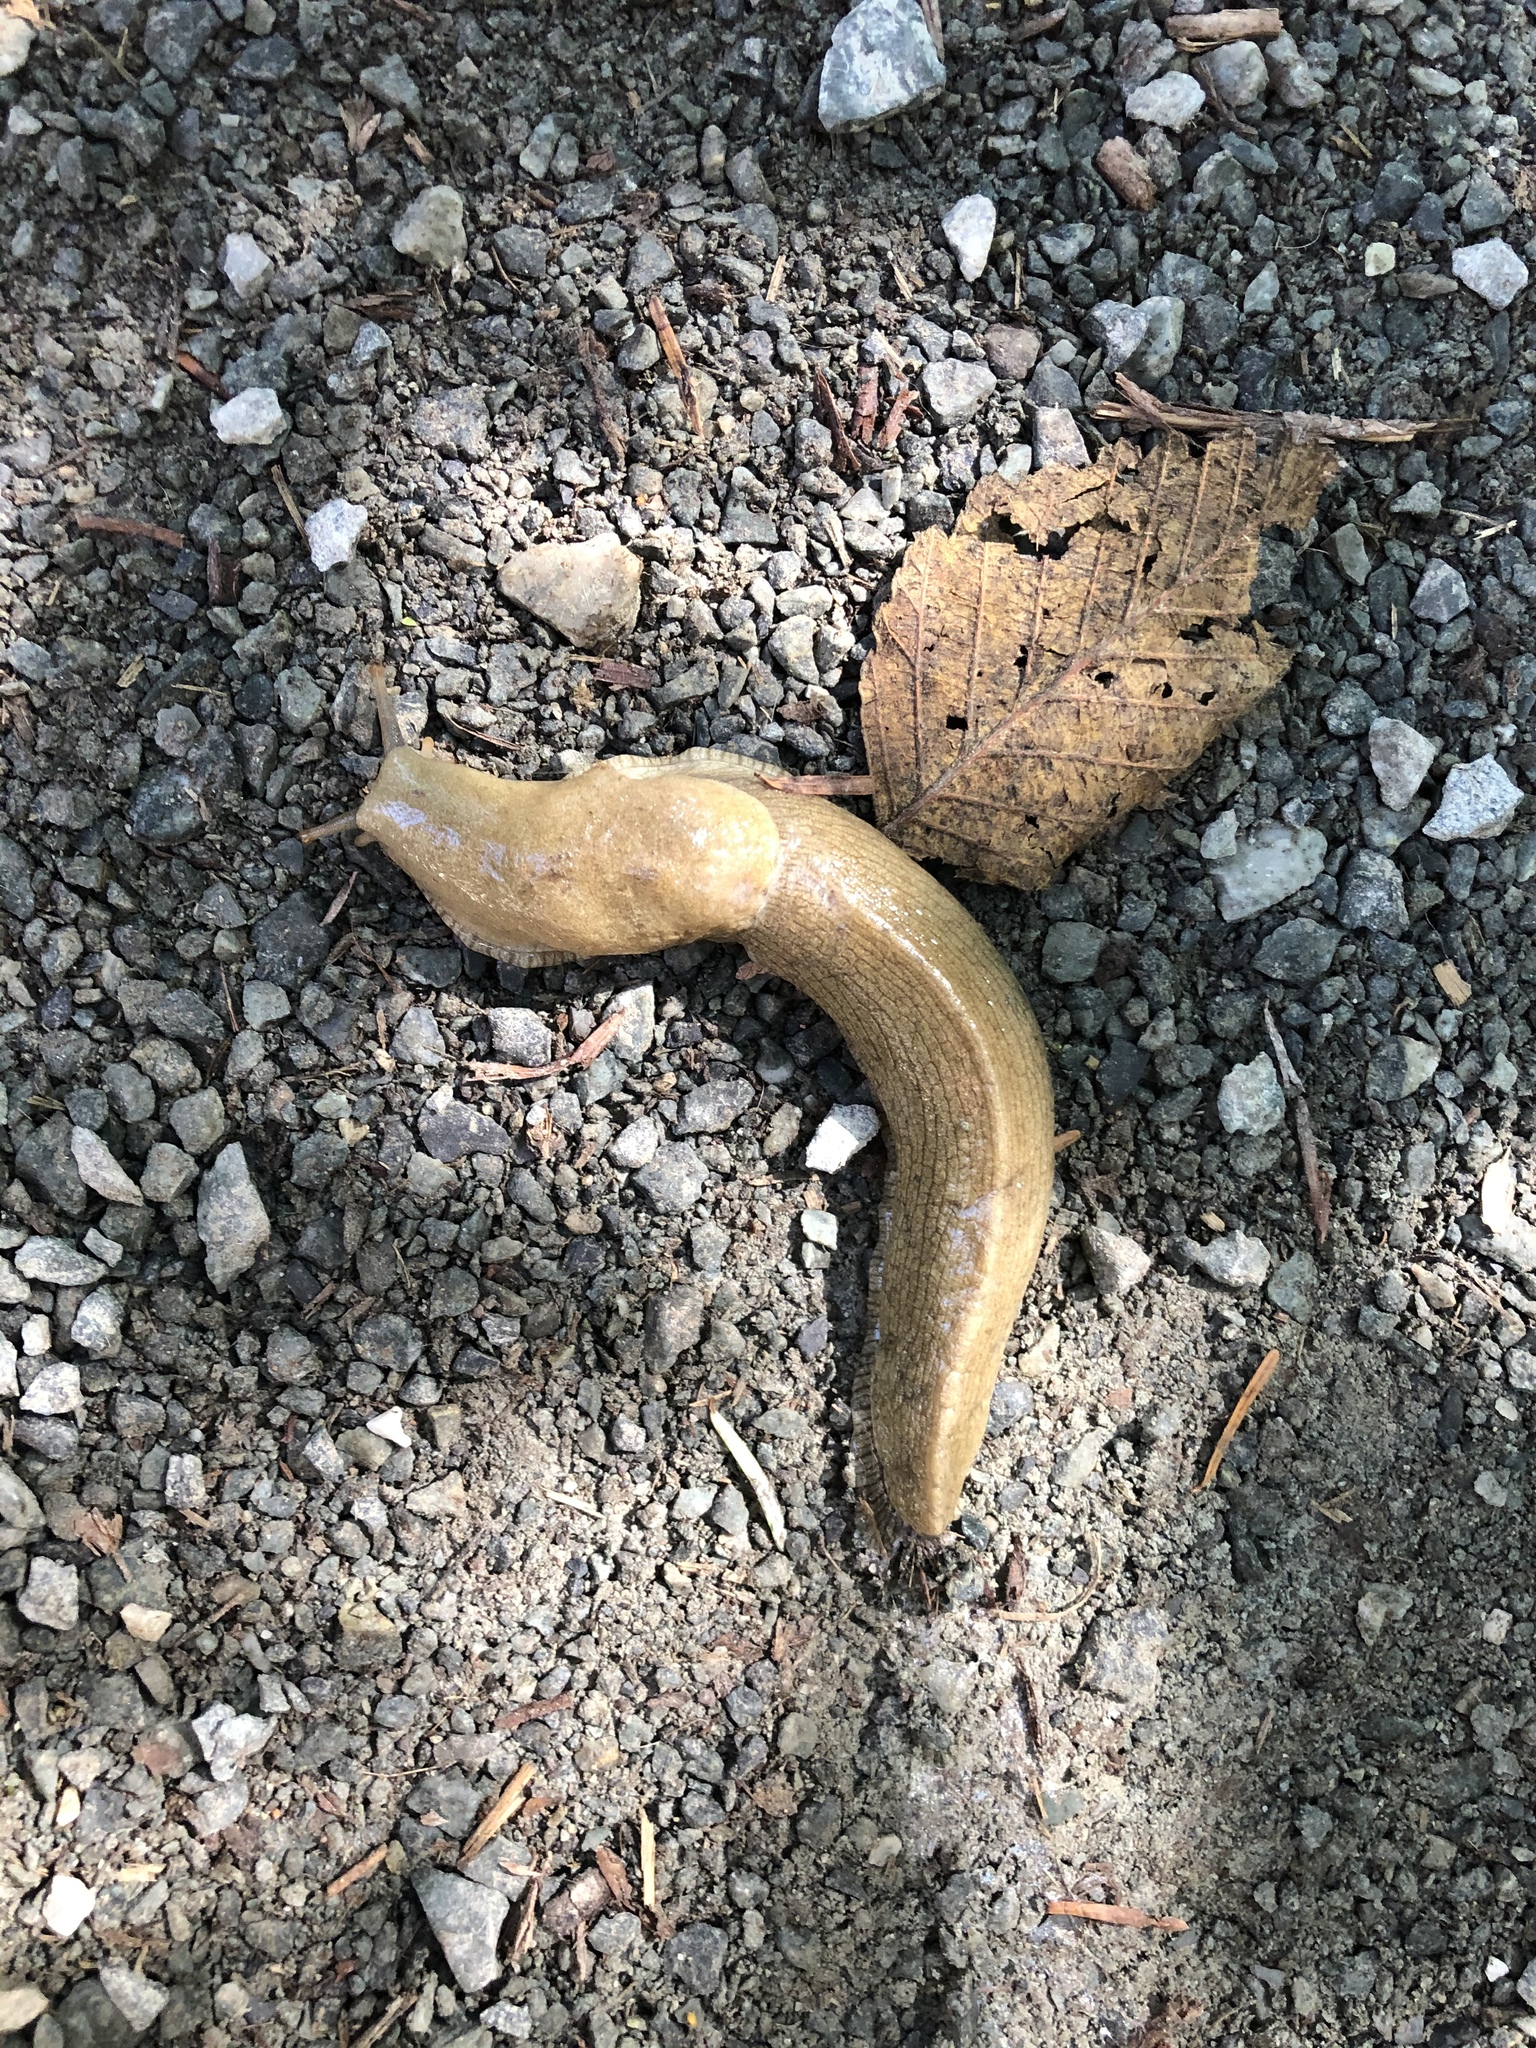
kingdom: Animalia
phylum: Mollusca
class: Gastropoda
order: Stylommatophora
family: Ariolimacidae
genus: Ariolimax
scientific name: Ariolimax columbianus
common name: Pacific banana slug
